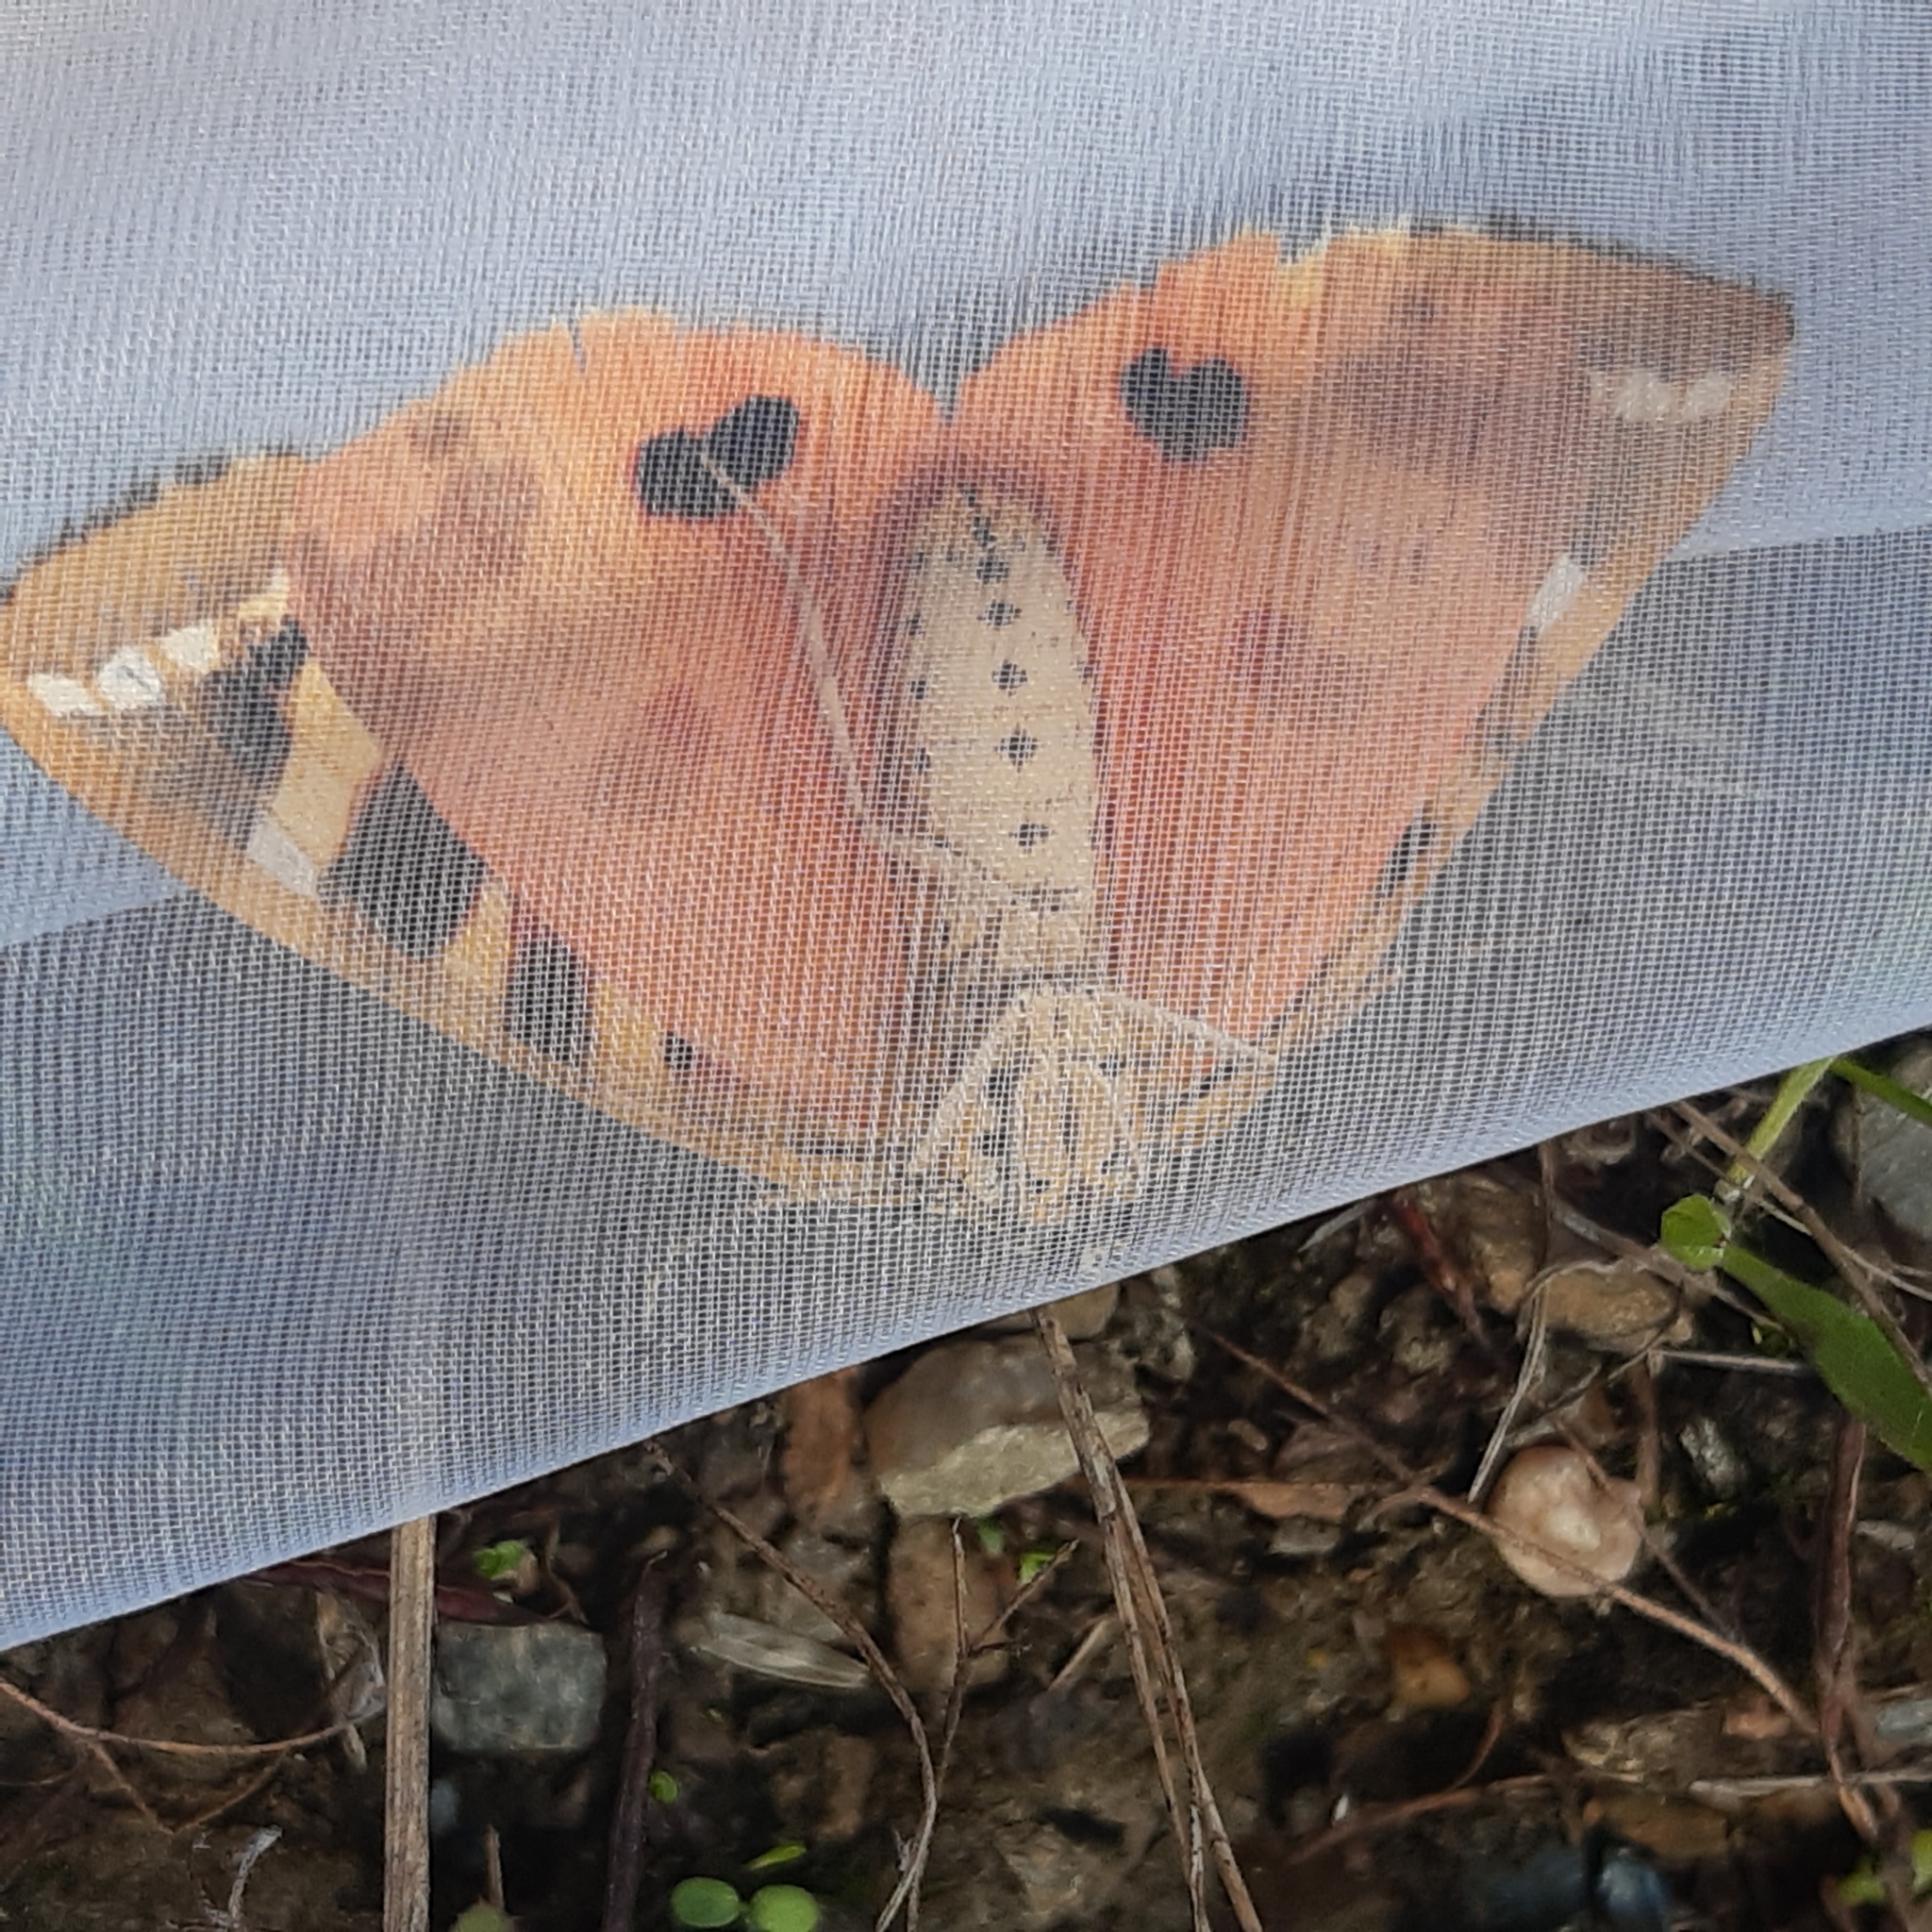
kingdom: Animalia
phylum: Arthropoda
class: Insecta
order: Lepidoptera
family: Erebidae
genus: Euplagia
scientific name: Euplagia quadripunctaria
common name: Jersey tiger
